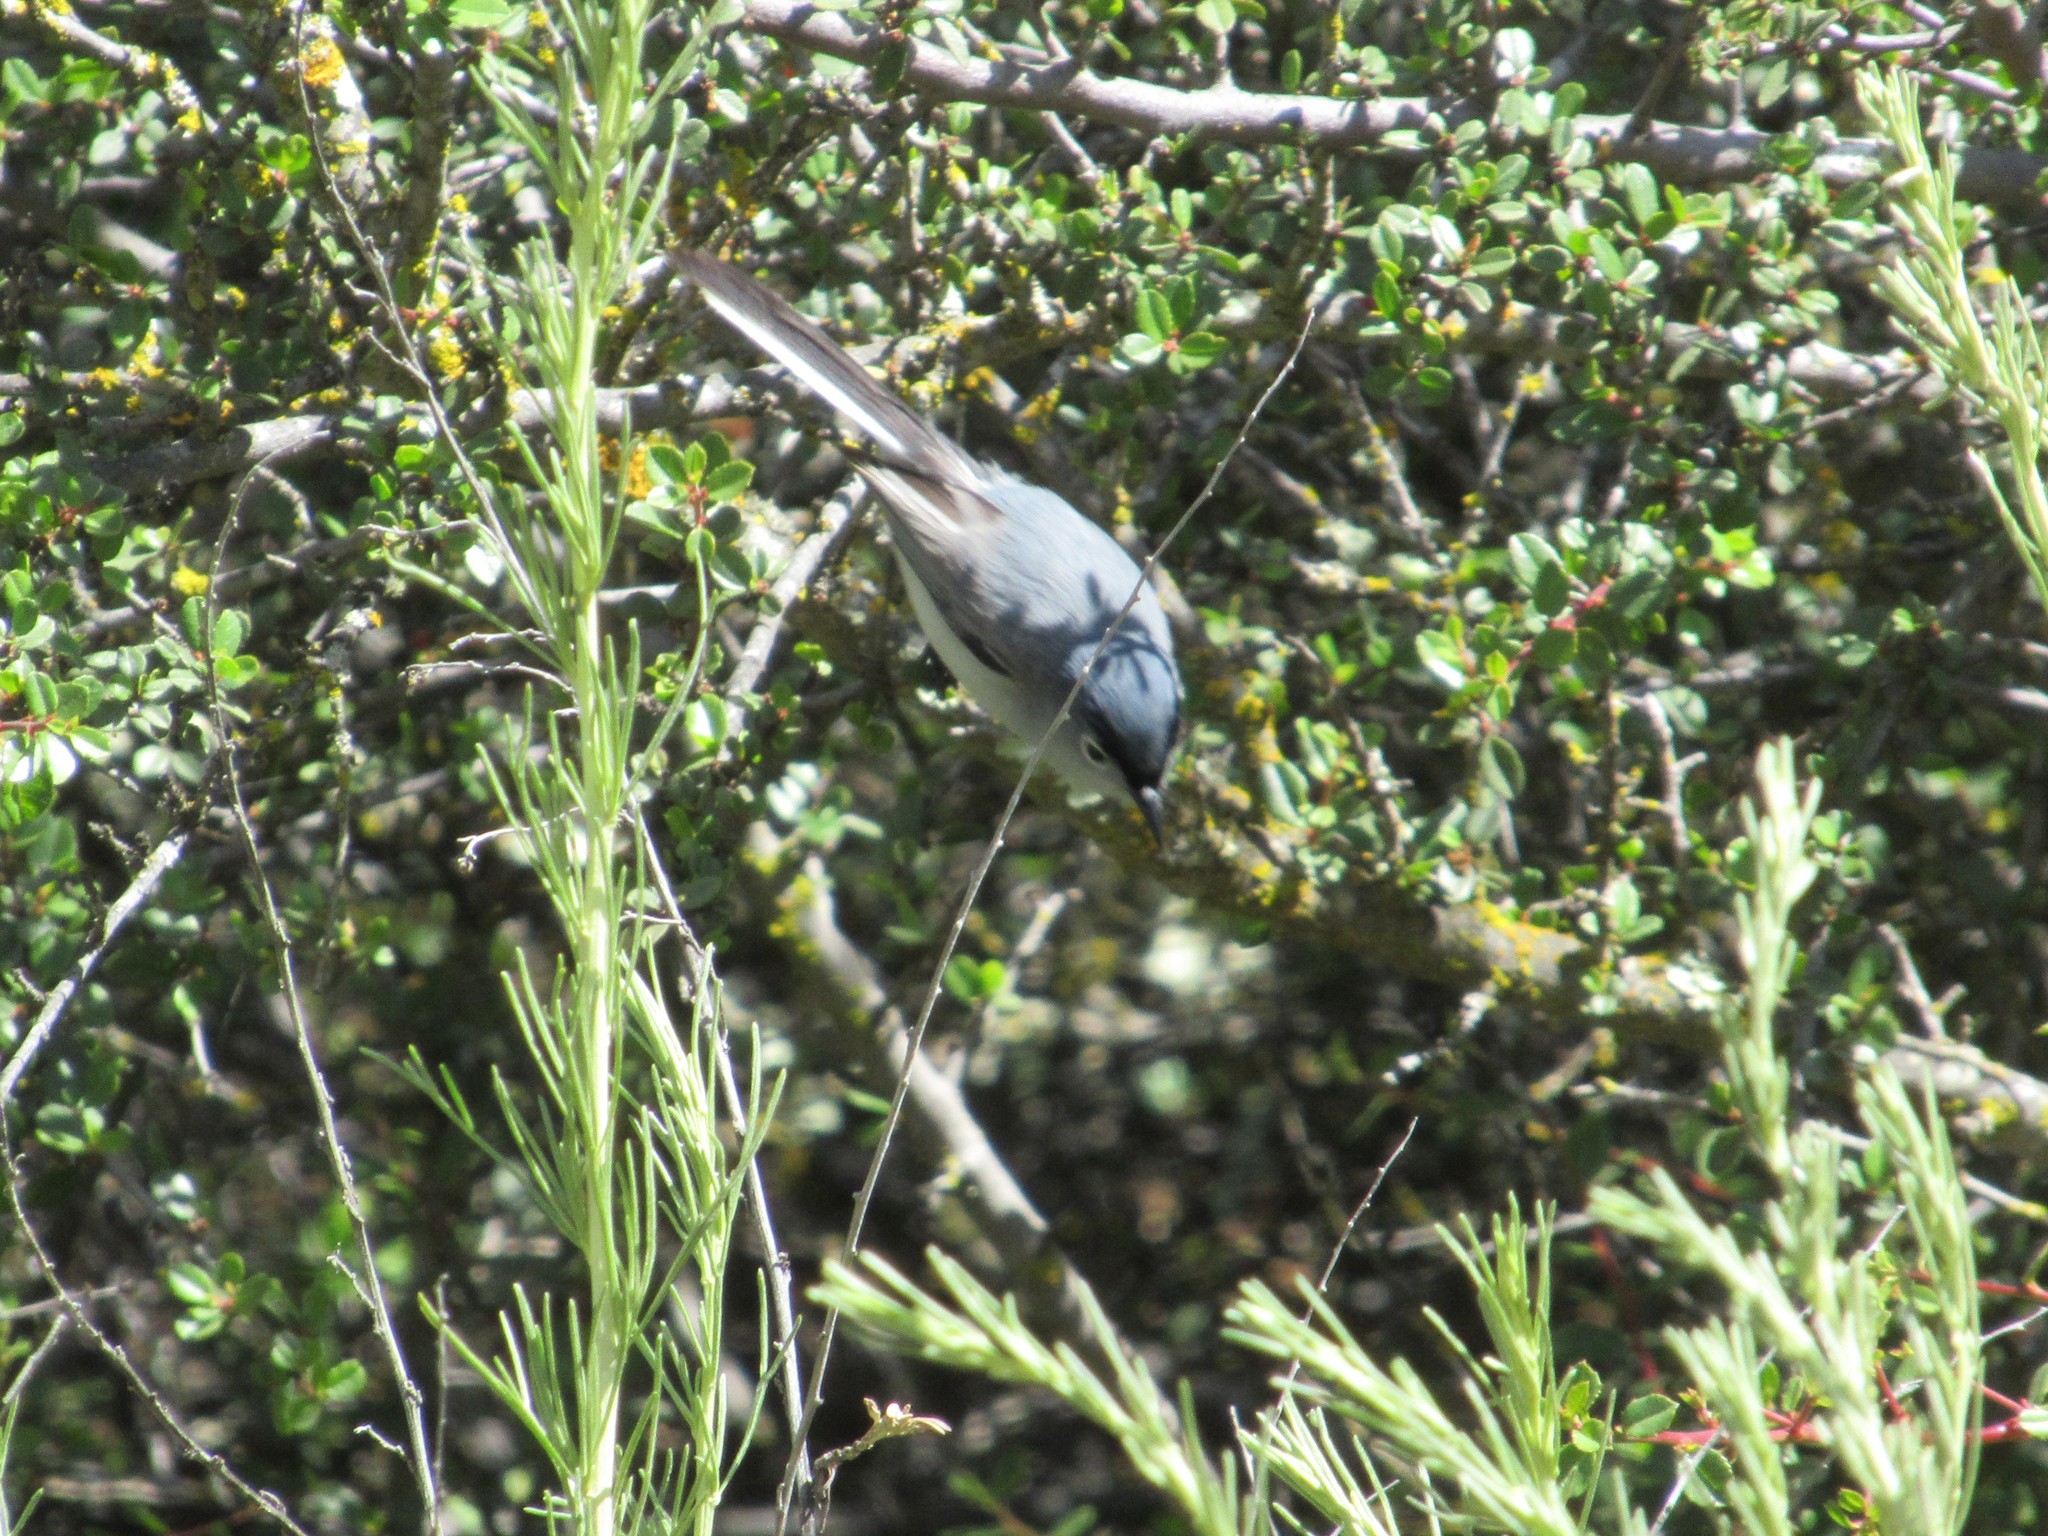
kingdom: Animalia
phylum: Chordata
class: Aves
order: Passeriformes
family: Polioptilidae
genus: Polioptila
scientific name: Polioptila caerulea
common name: Blue-gray gnatcatcher
